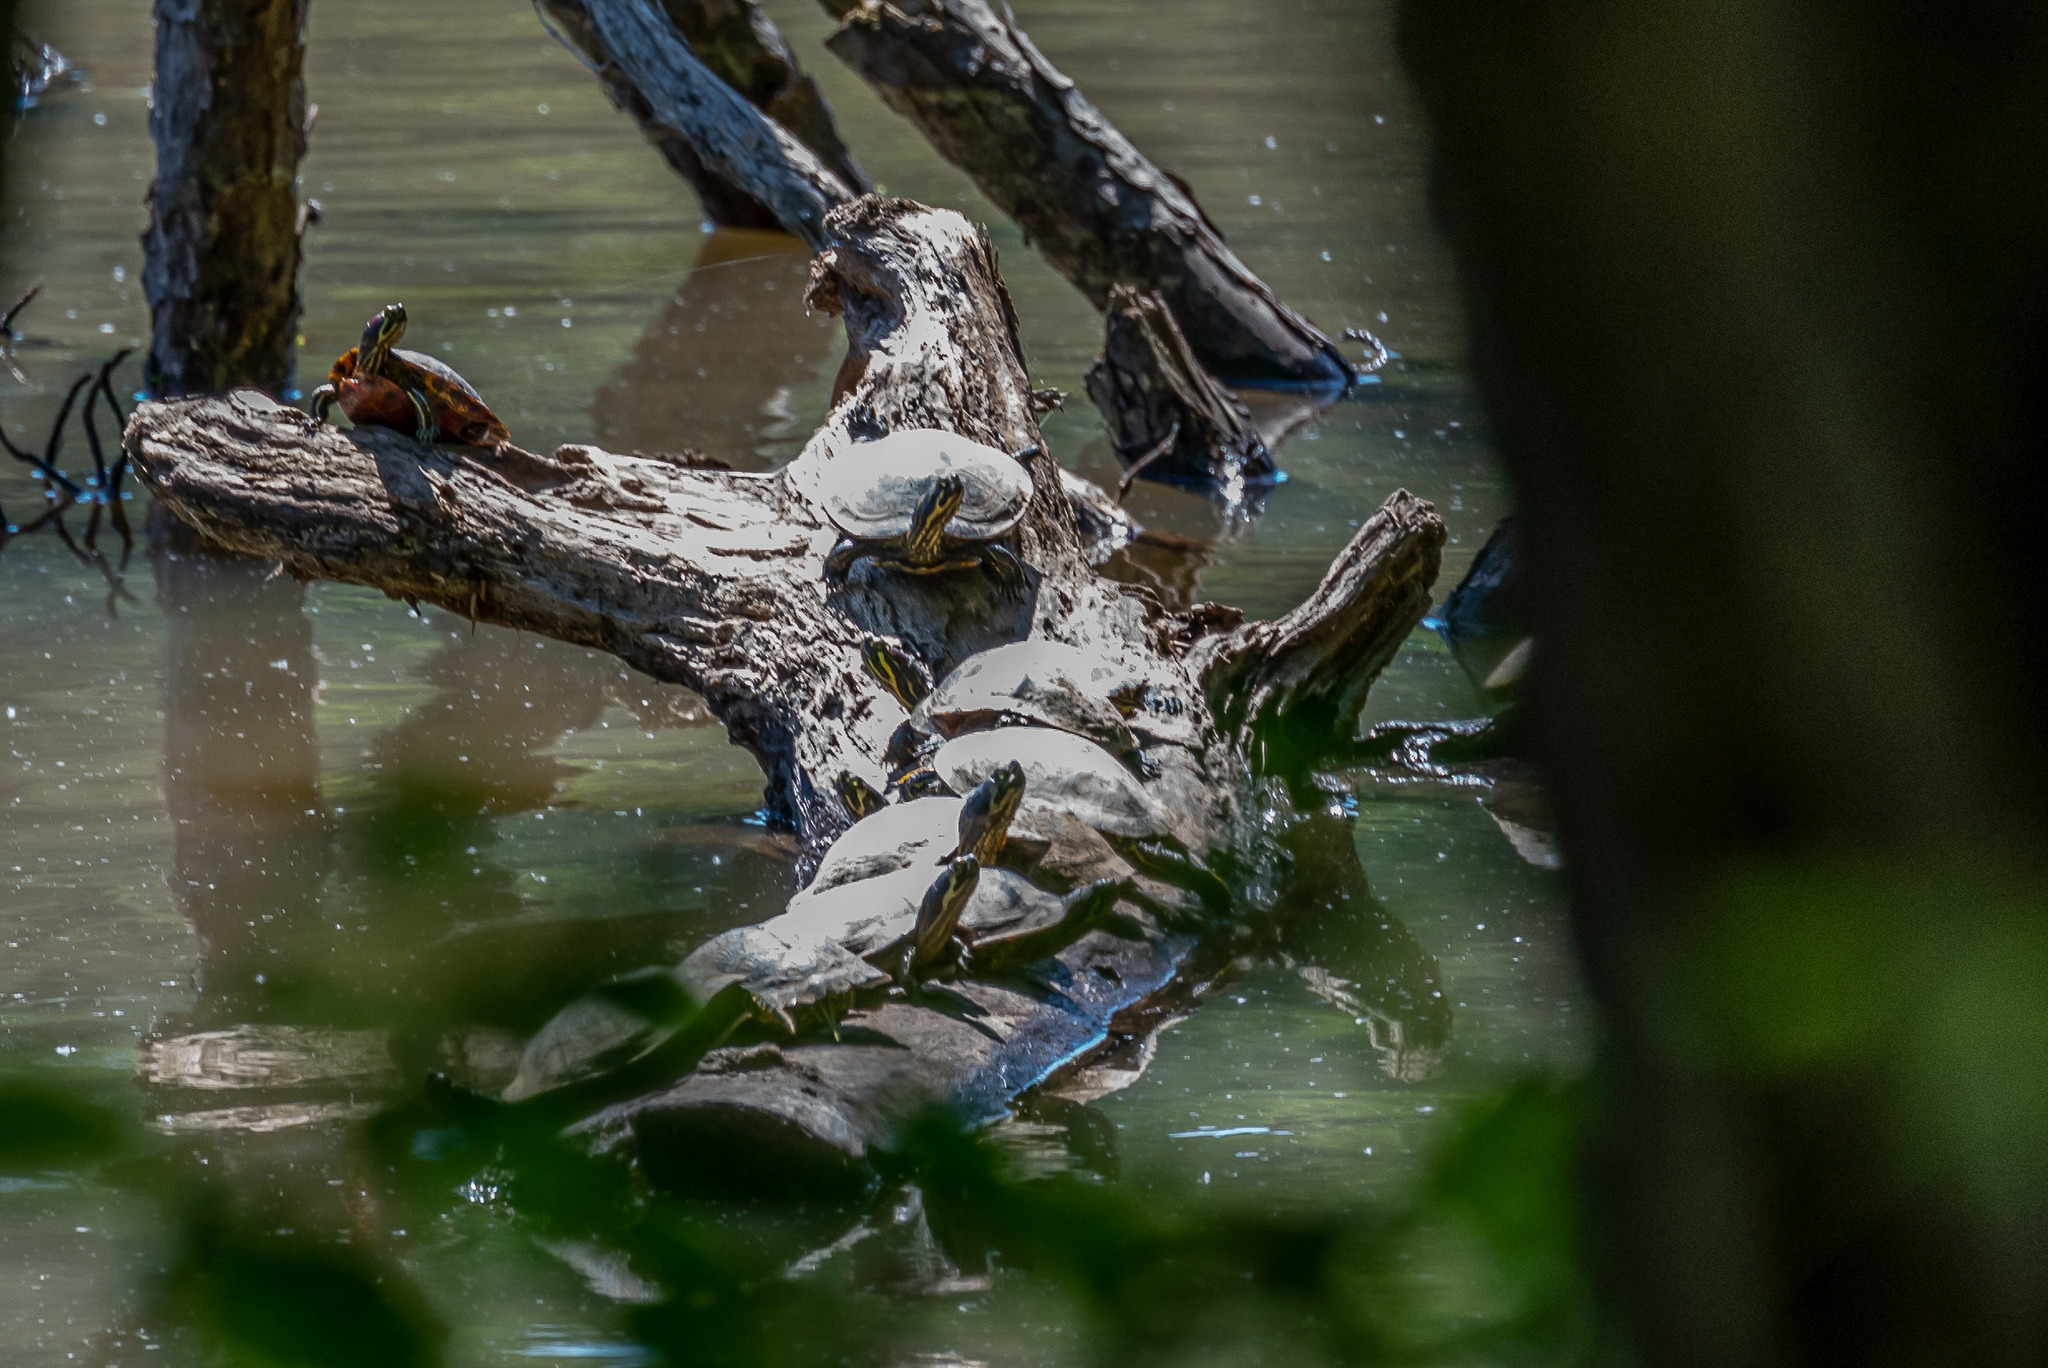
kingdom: Animalia
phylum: Chordata
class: Testudines
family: Emydidae
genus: Trachemys
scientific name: Trachemys scripta
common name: Slider
